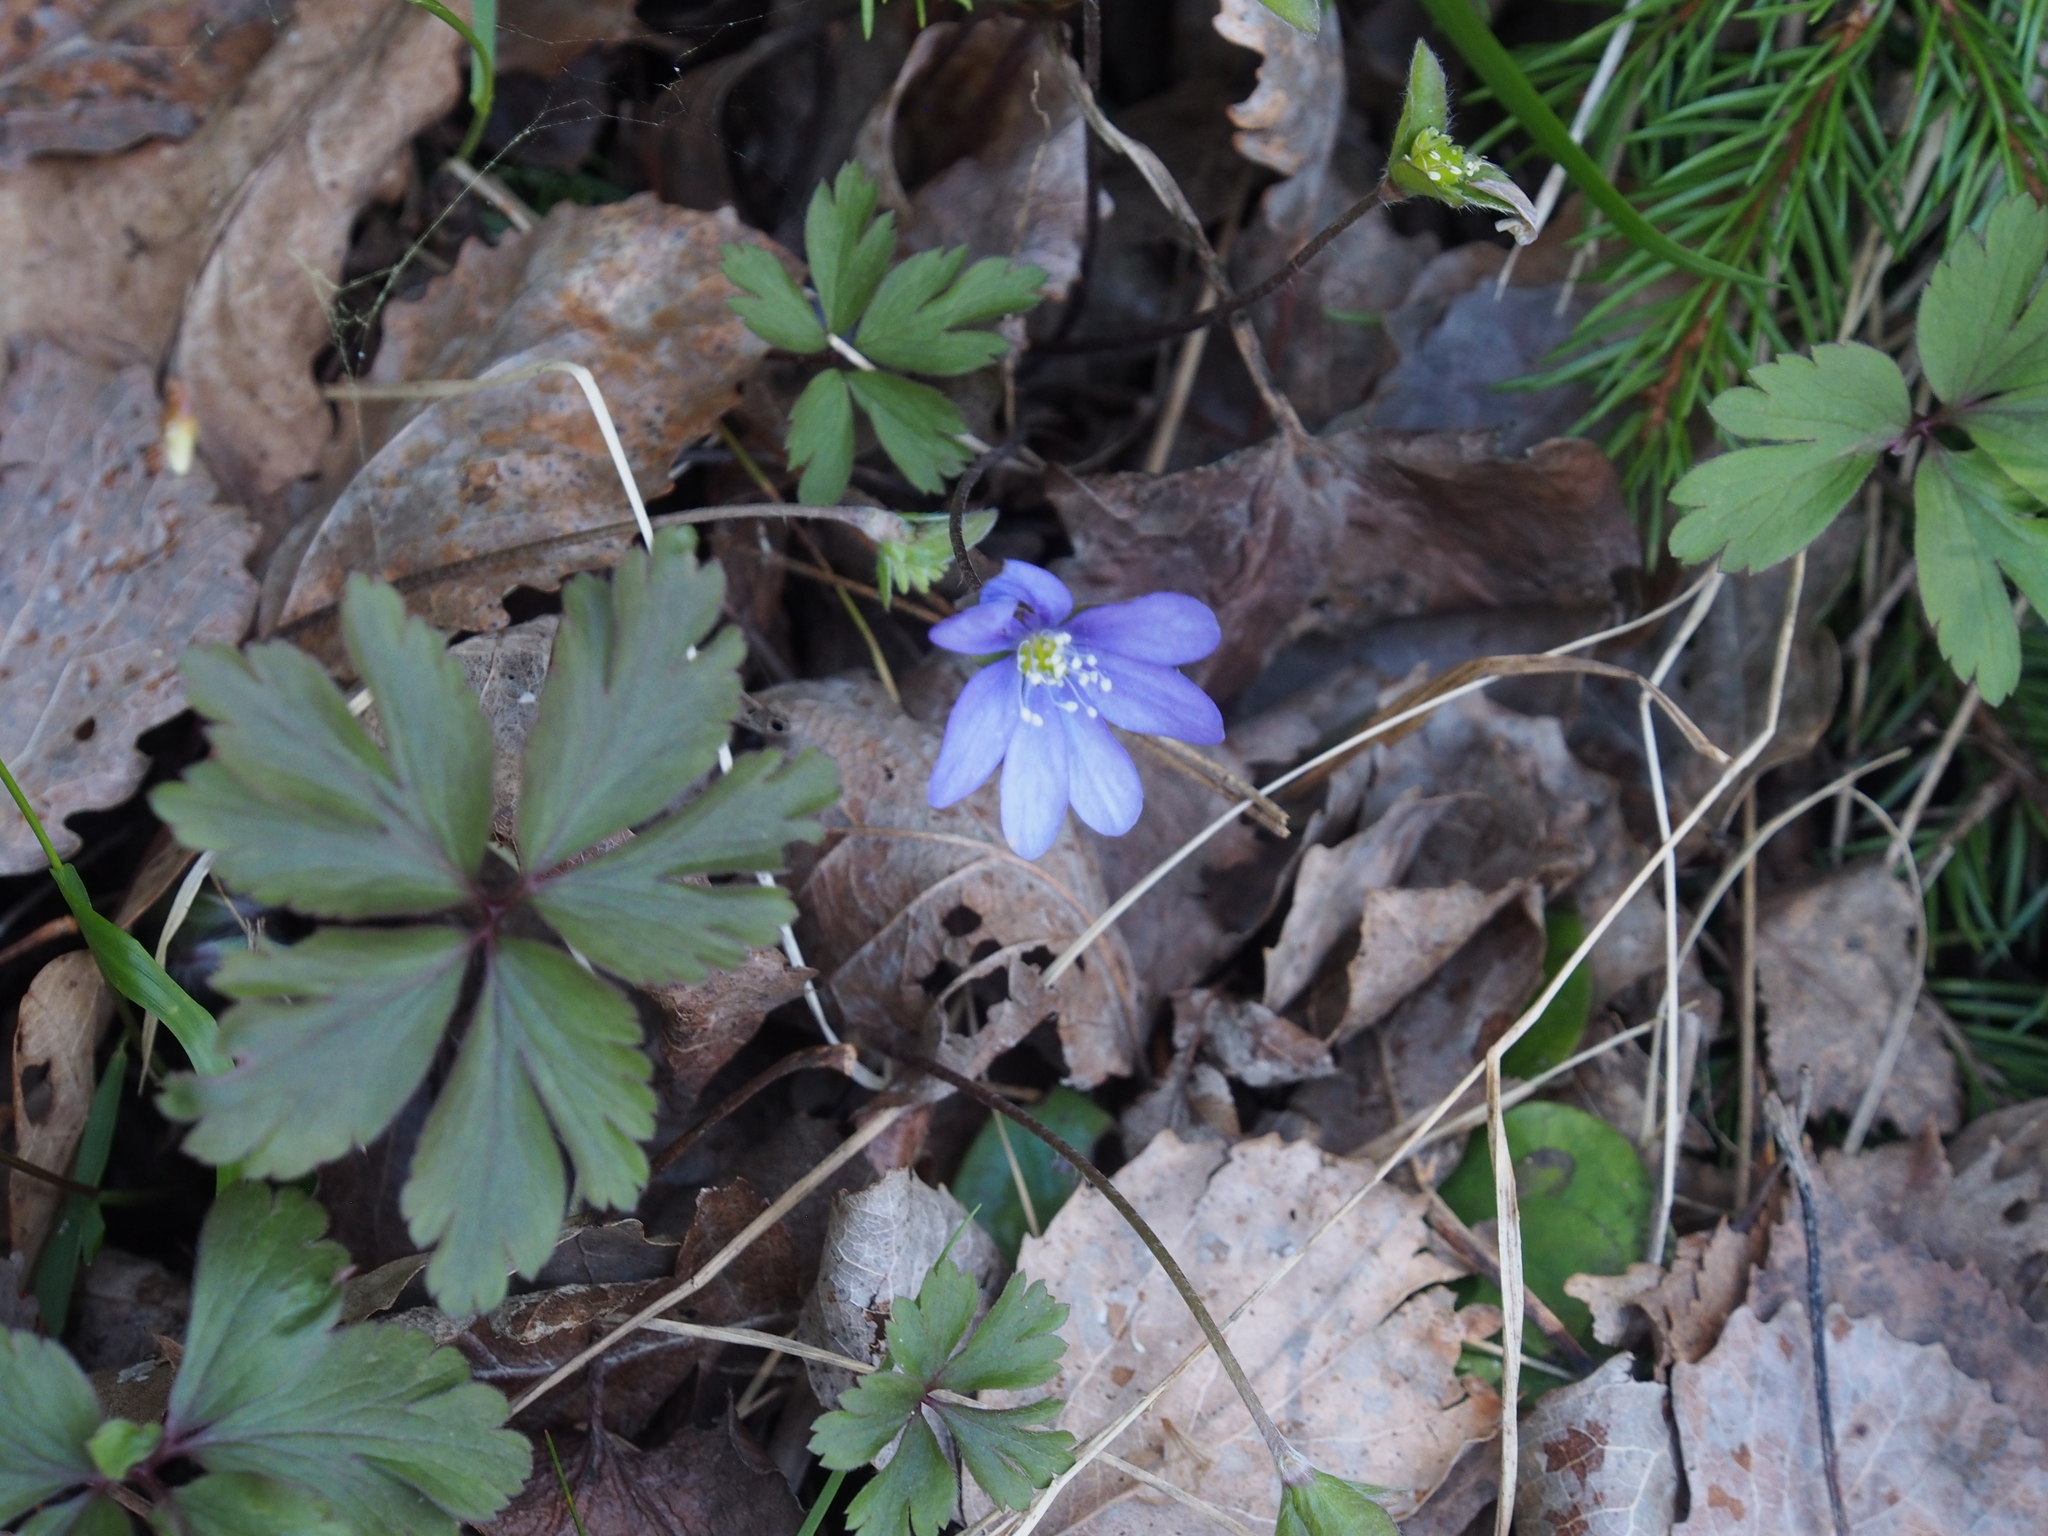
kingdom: Plantae
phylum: Tracheophyta
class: Magnoliopsida
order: Ranunculales
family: Ranunculaceae
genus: Hepatica
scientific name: Hepatica nobilis
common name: Liverleaf
